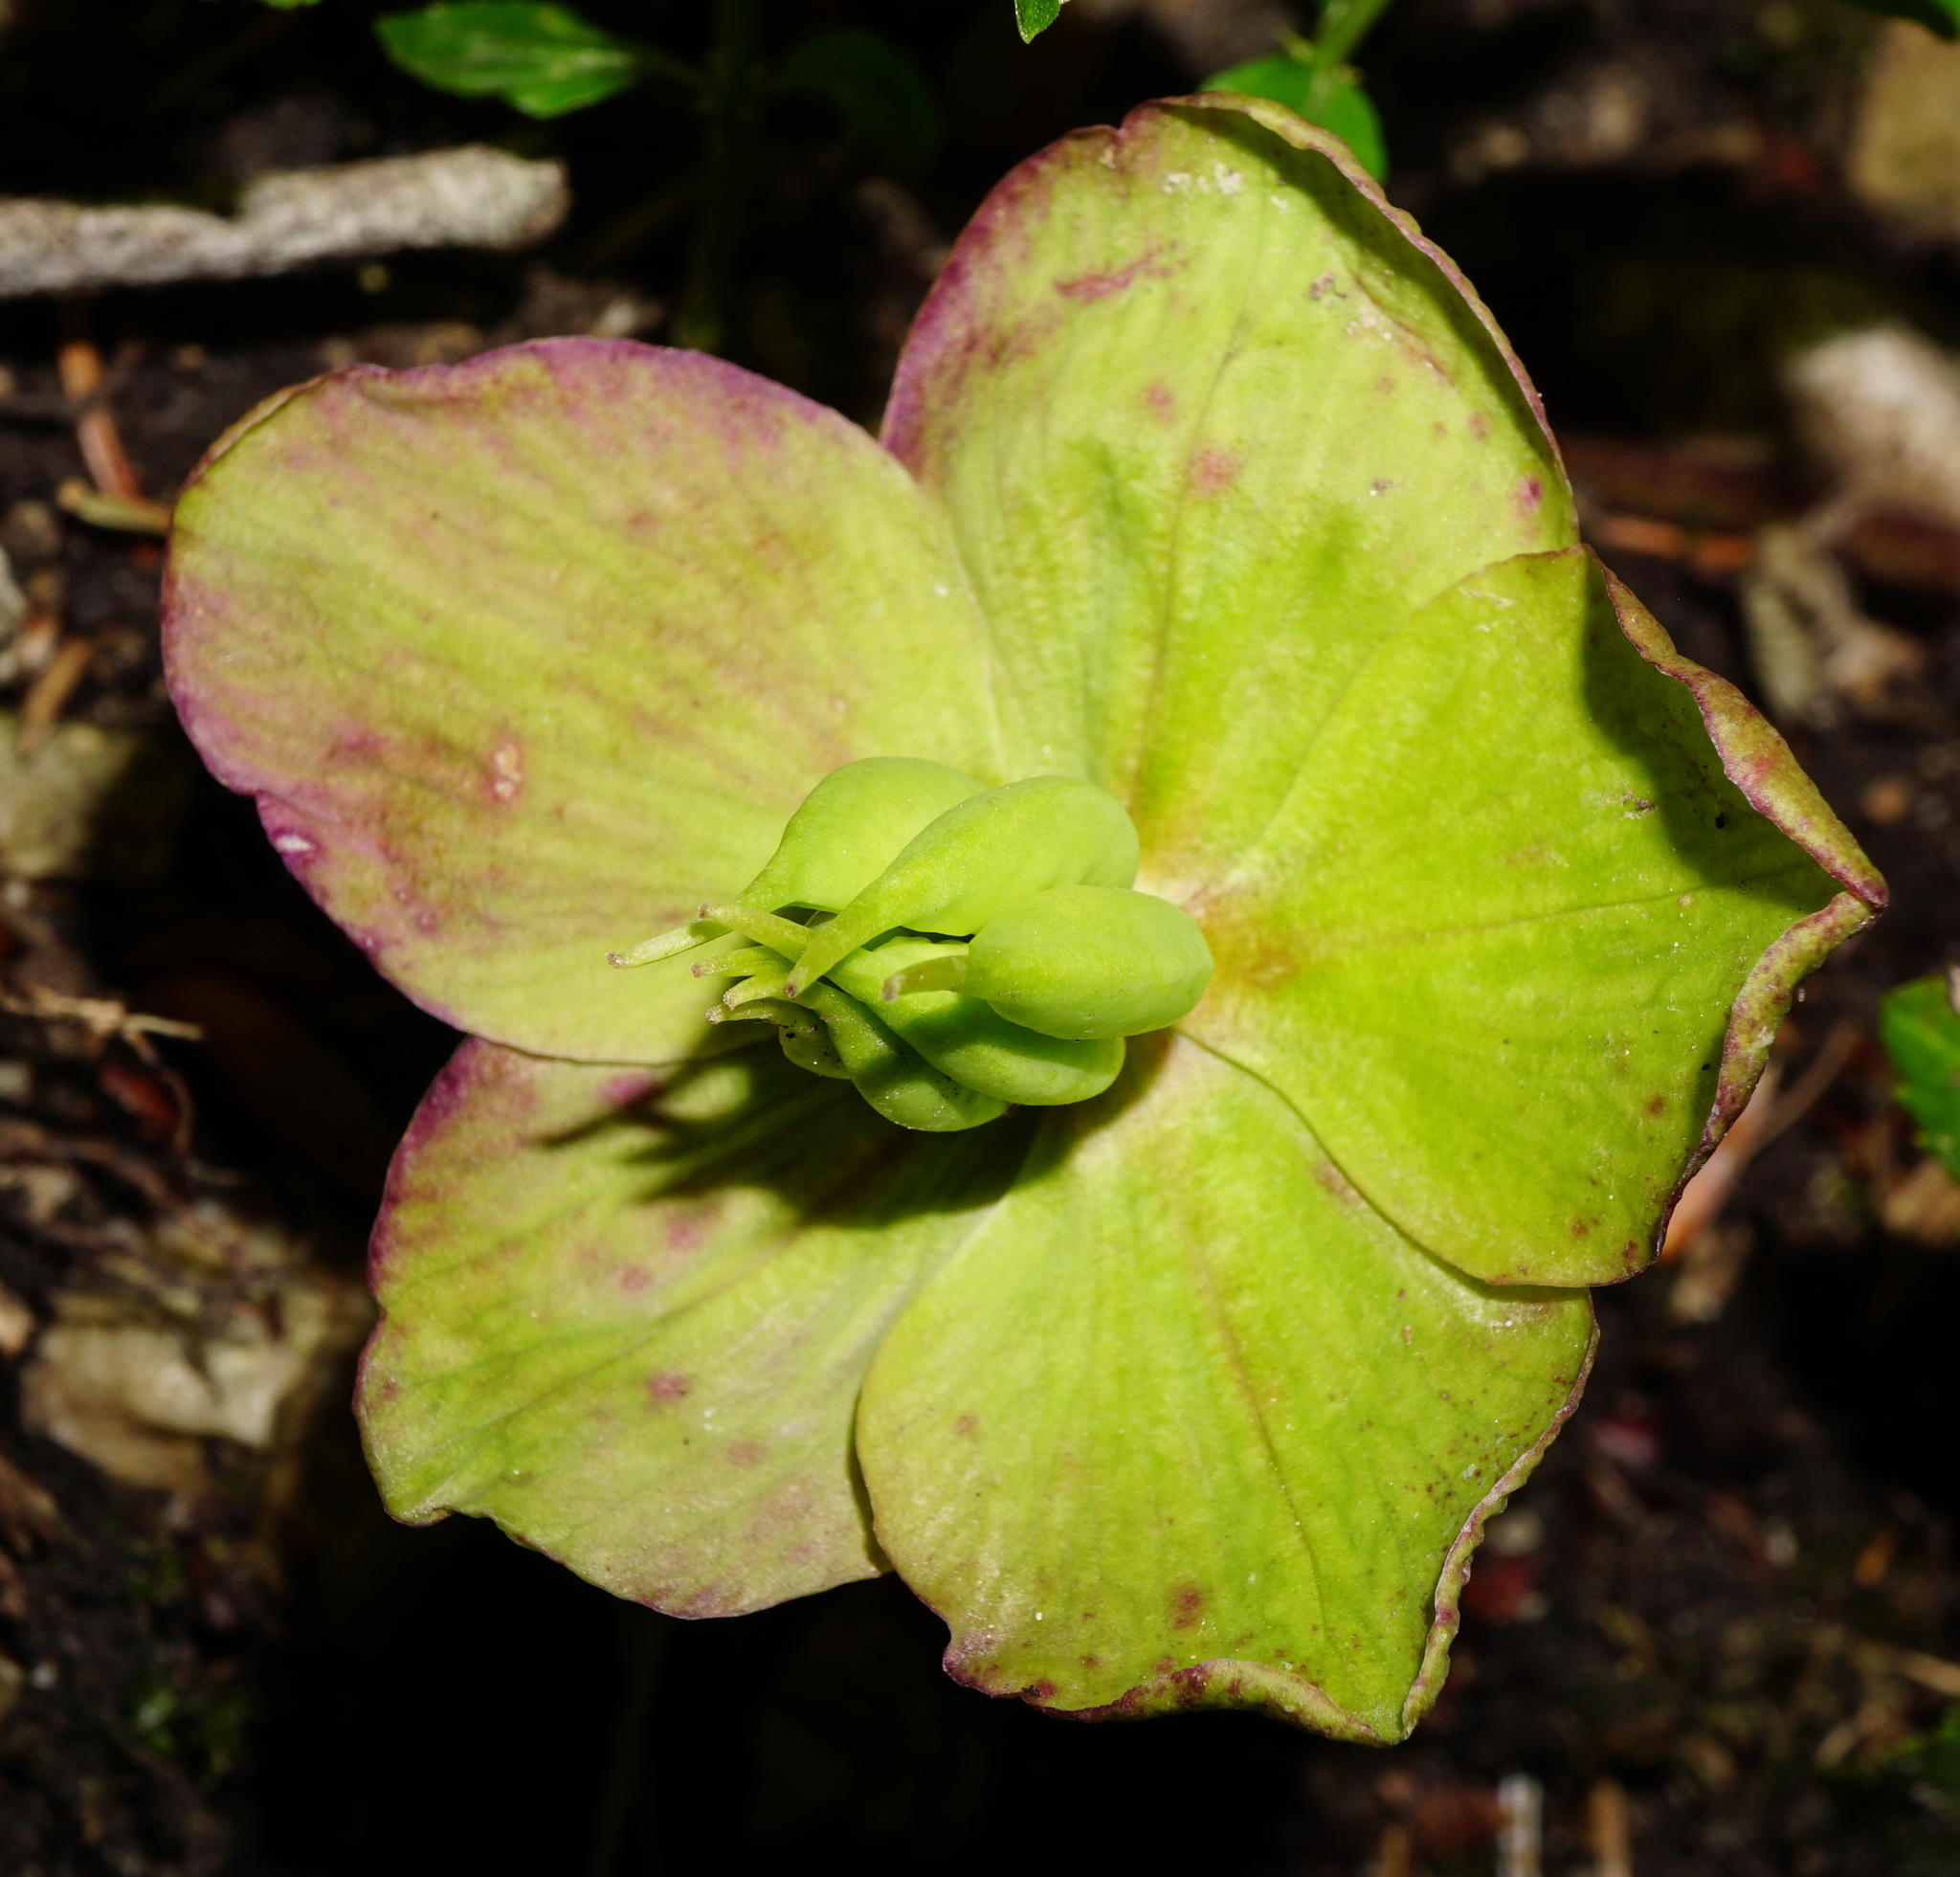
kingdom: Plantae
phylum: Tracheophyta
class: Magnoliopsida
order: Ranunculales
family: Ranunculaceae
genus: Helleborus
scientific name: Helleborus niger
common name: Black hellebore
